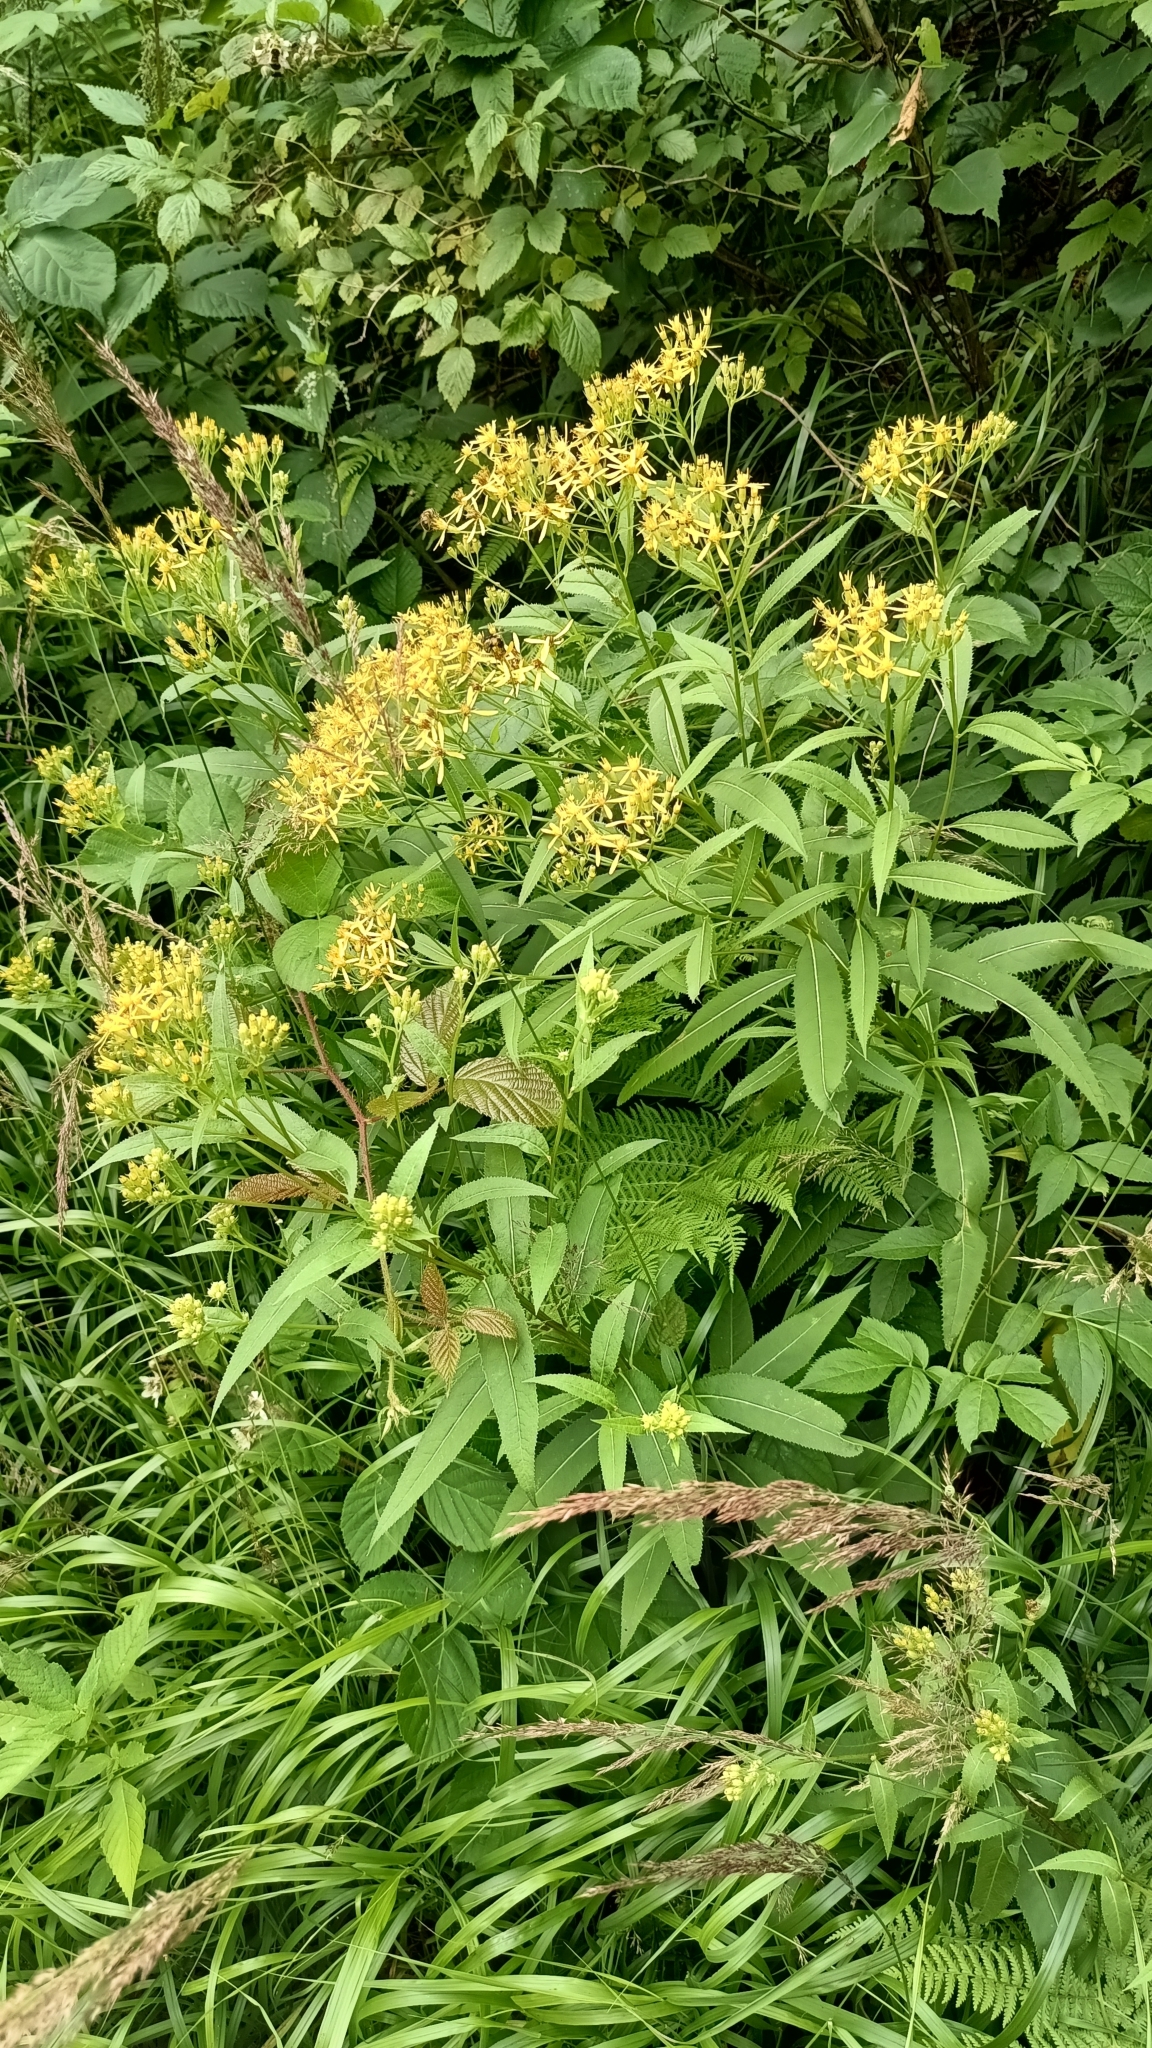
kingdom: Plantae
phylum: Tracheophyta
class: Magnoliopsida
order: Asterales
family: Asteraceae
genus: Senecio
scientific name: Senecio ovatus
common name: Wood ragwort
